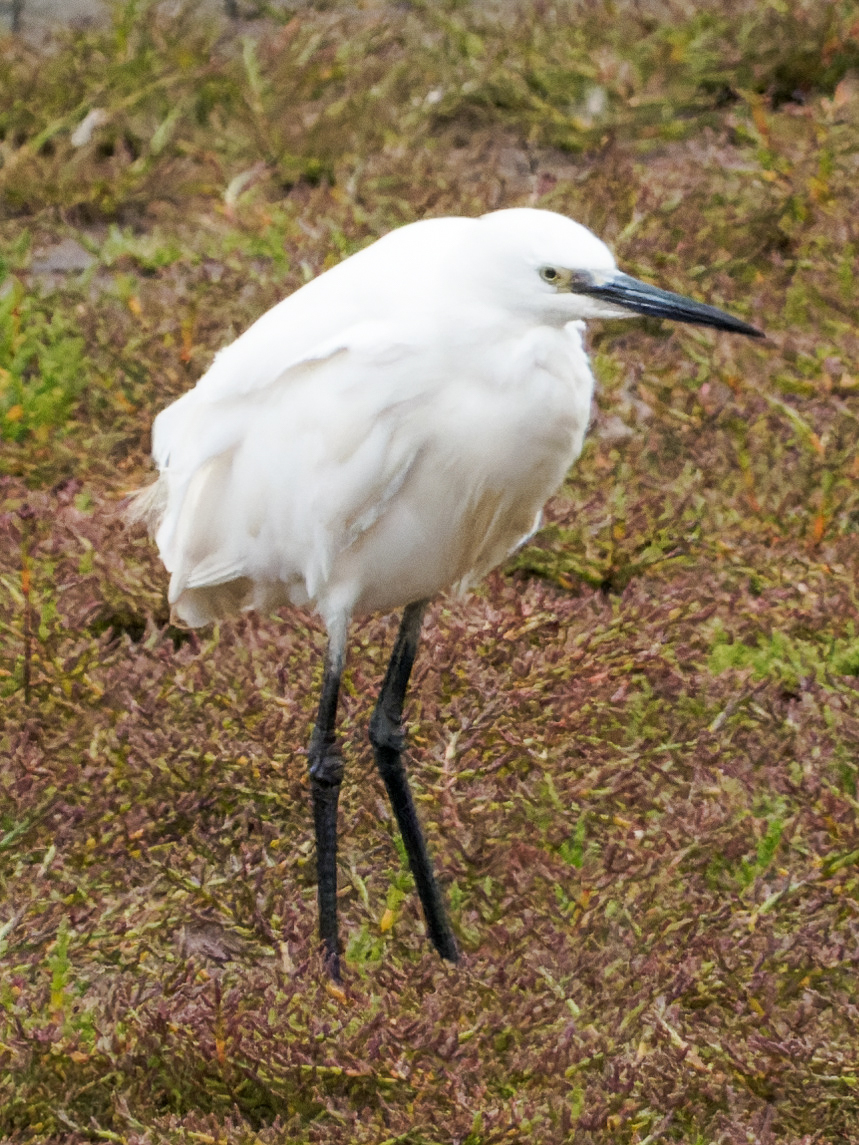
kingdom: Animalia
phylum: Chordata
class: Aves
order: Pelecaniformes
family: Ardeidae
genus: Egretta
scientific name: Egretta garzetta
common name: Little egret
